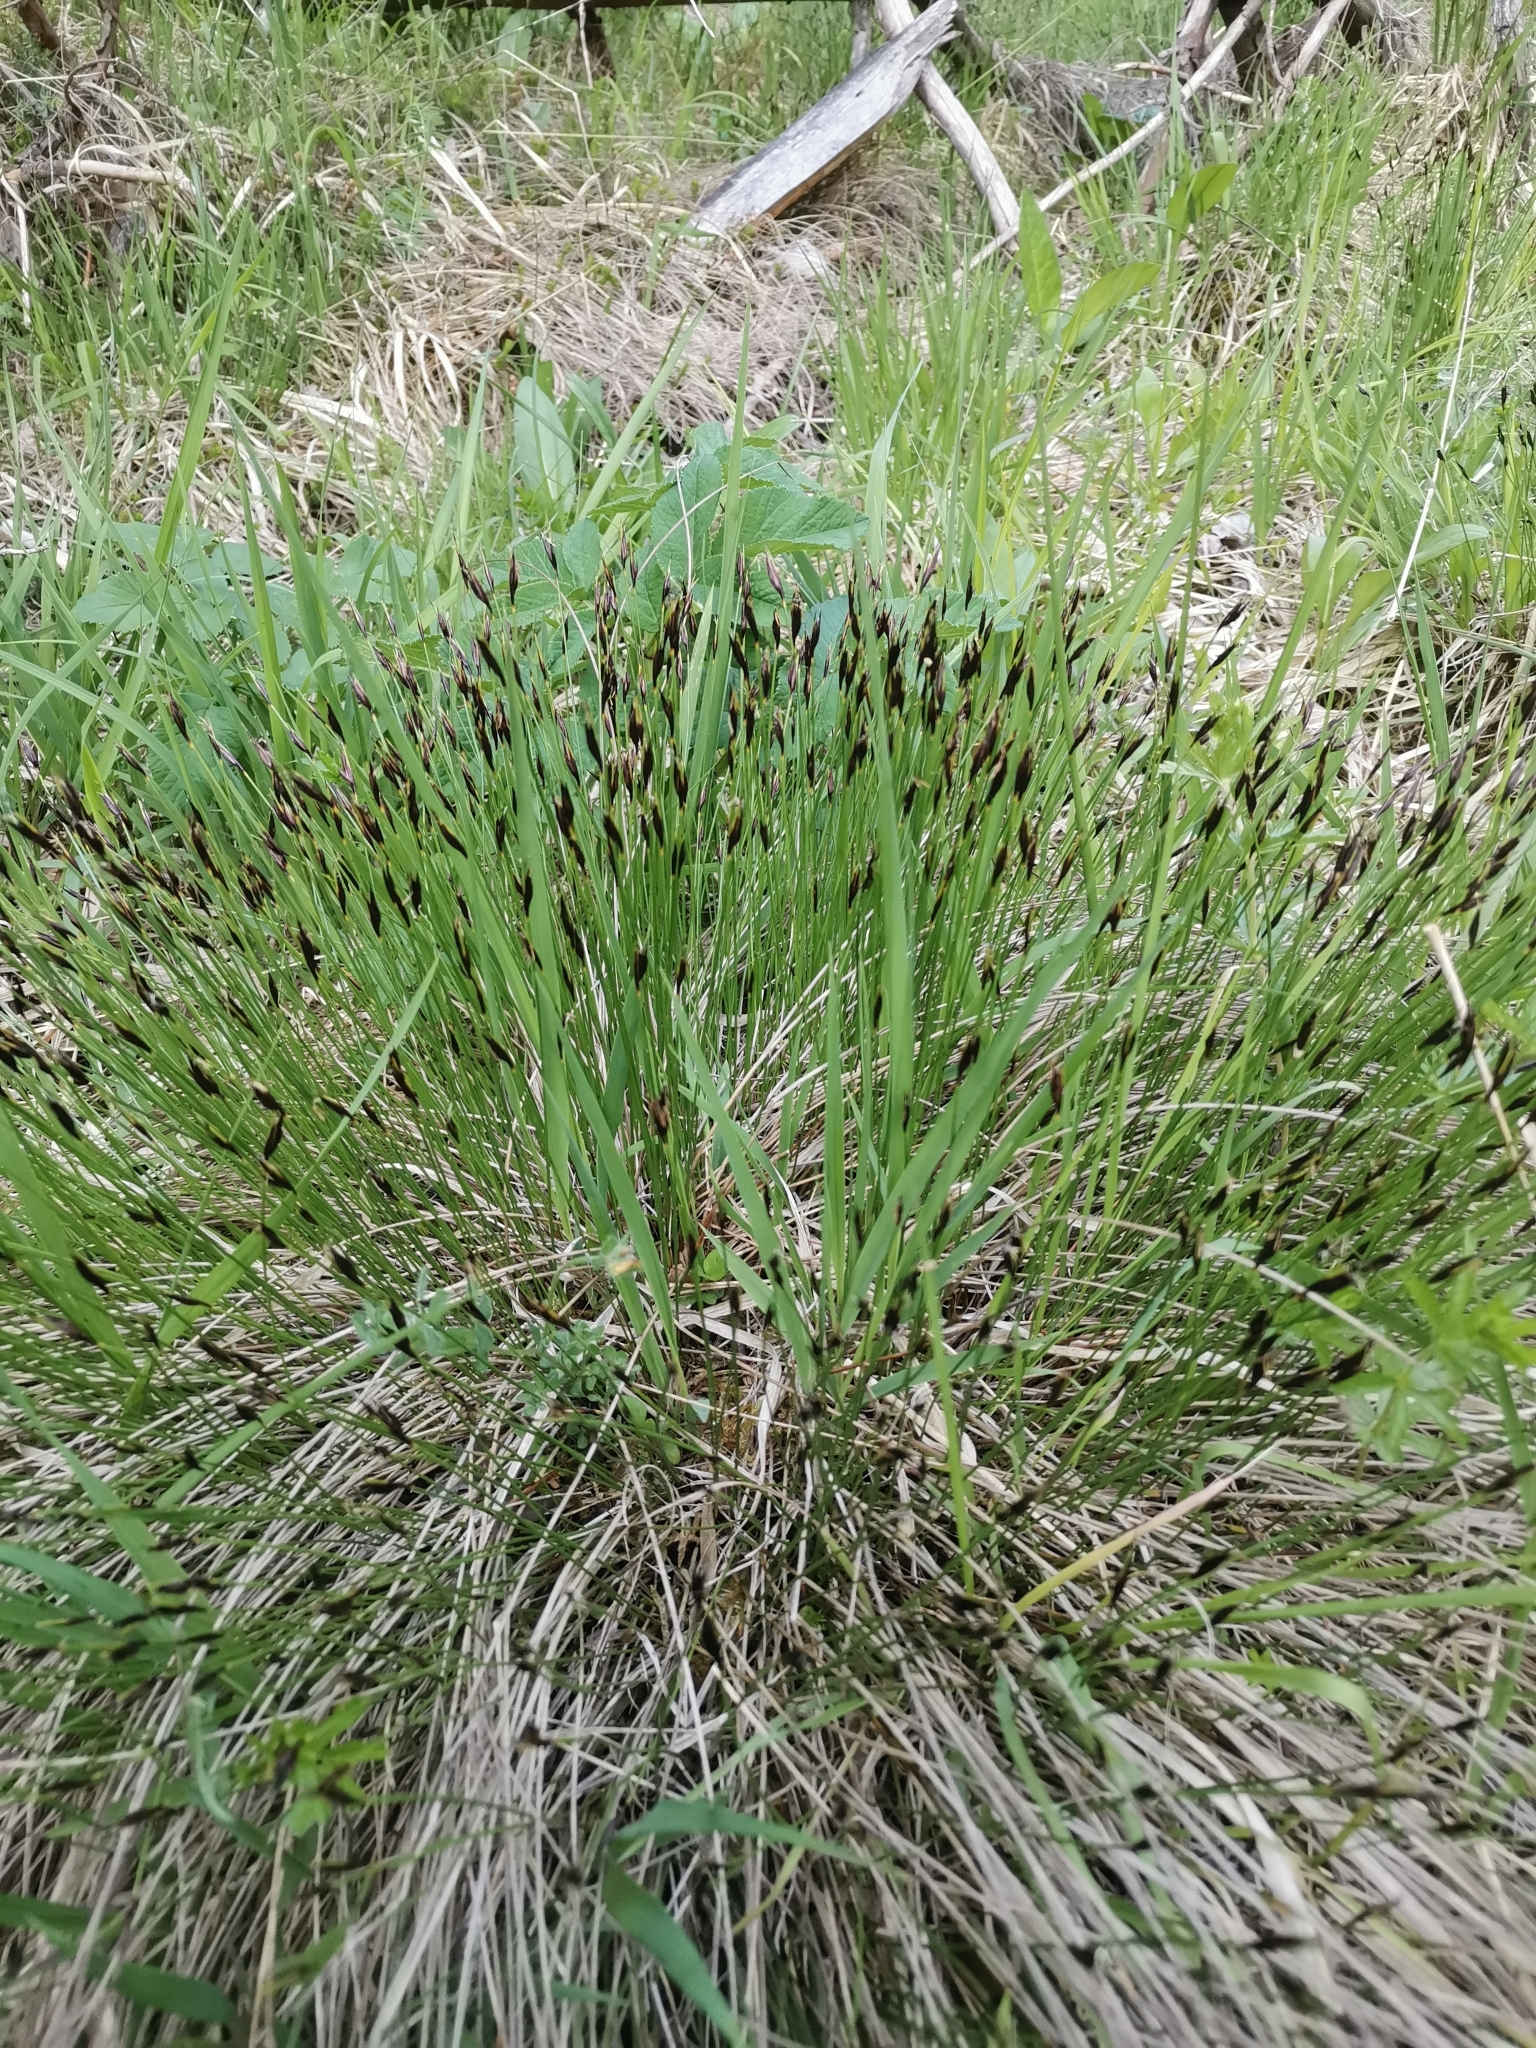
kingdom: Plantae
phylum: Tracheophyta
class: Liliopsida
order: Poales
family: Cyperaceae
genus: Schoenus
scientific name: Schoenus ferrugineus
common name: Brown bog-rush
